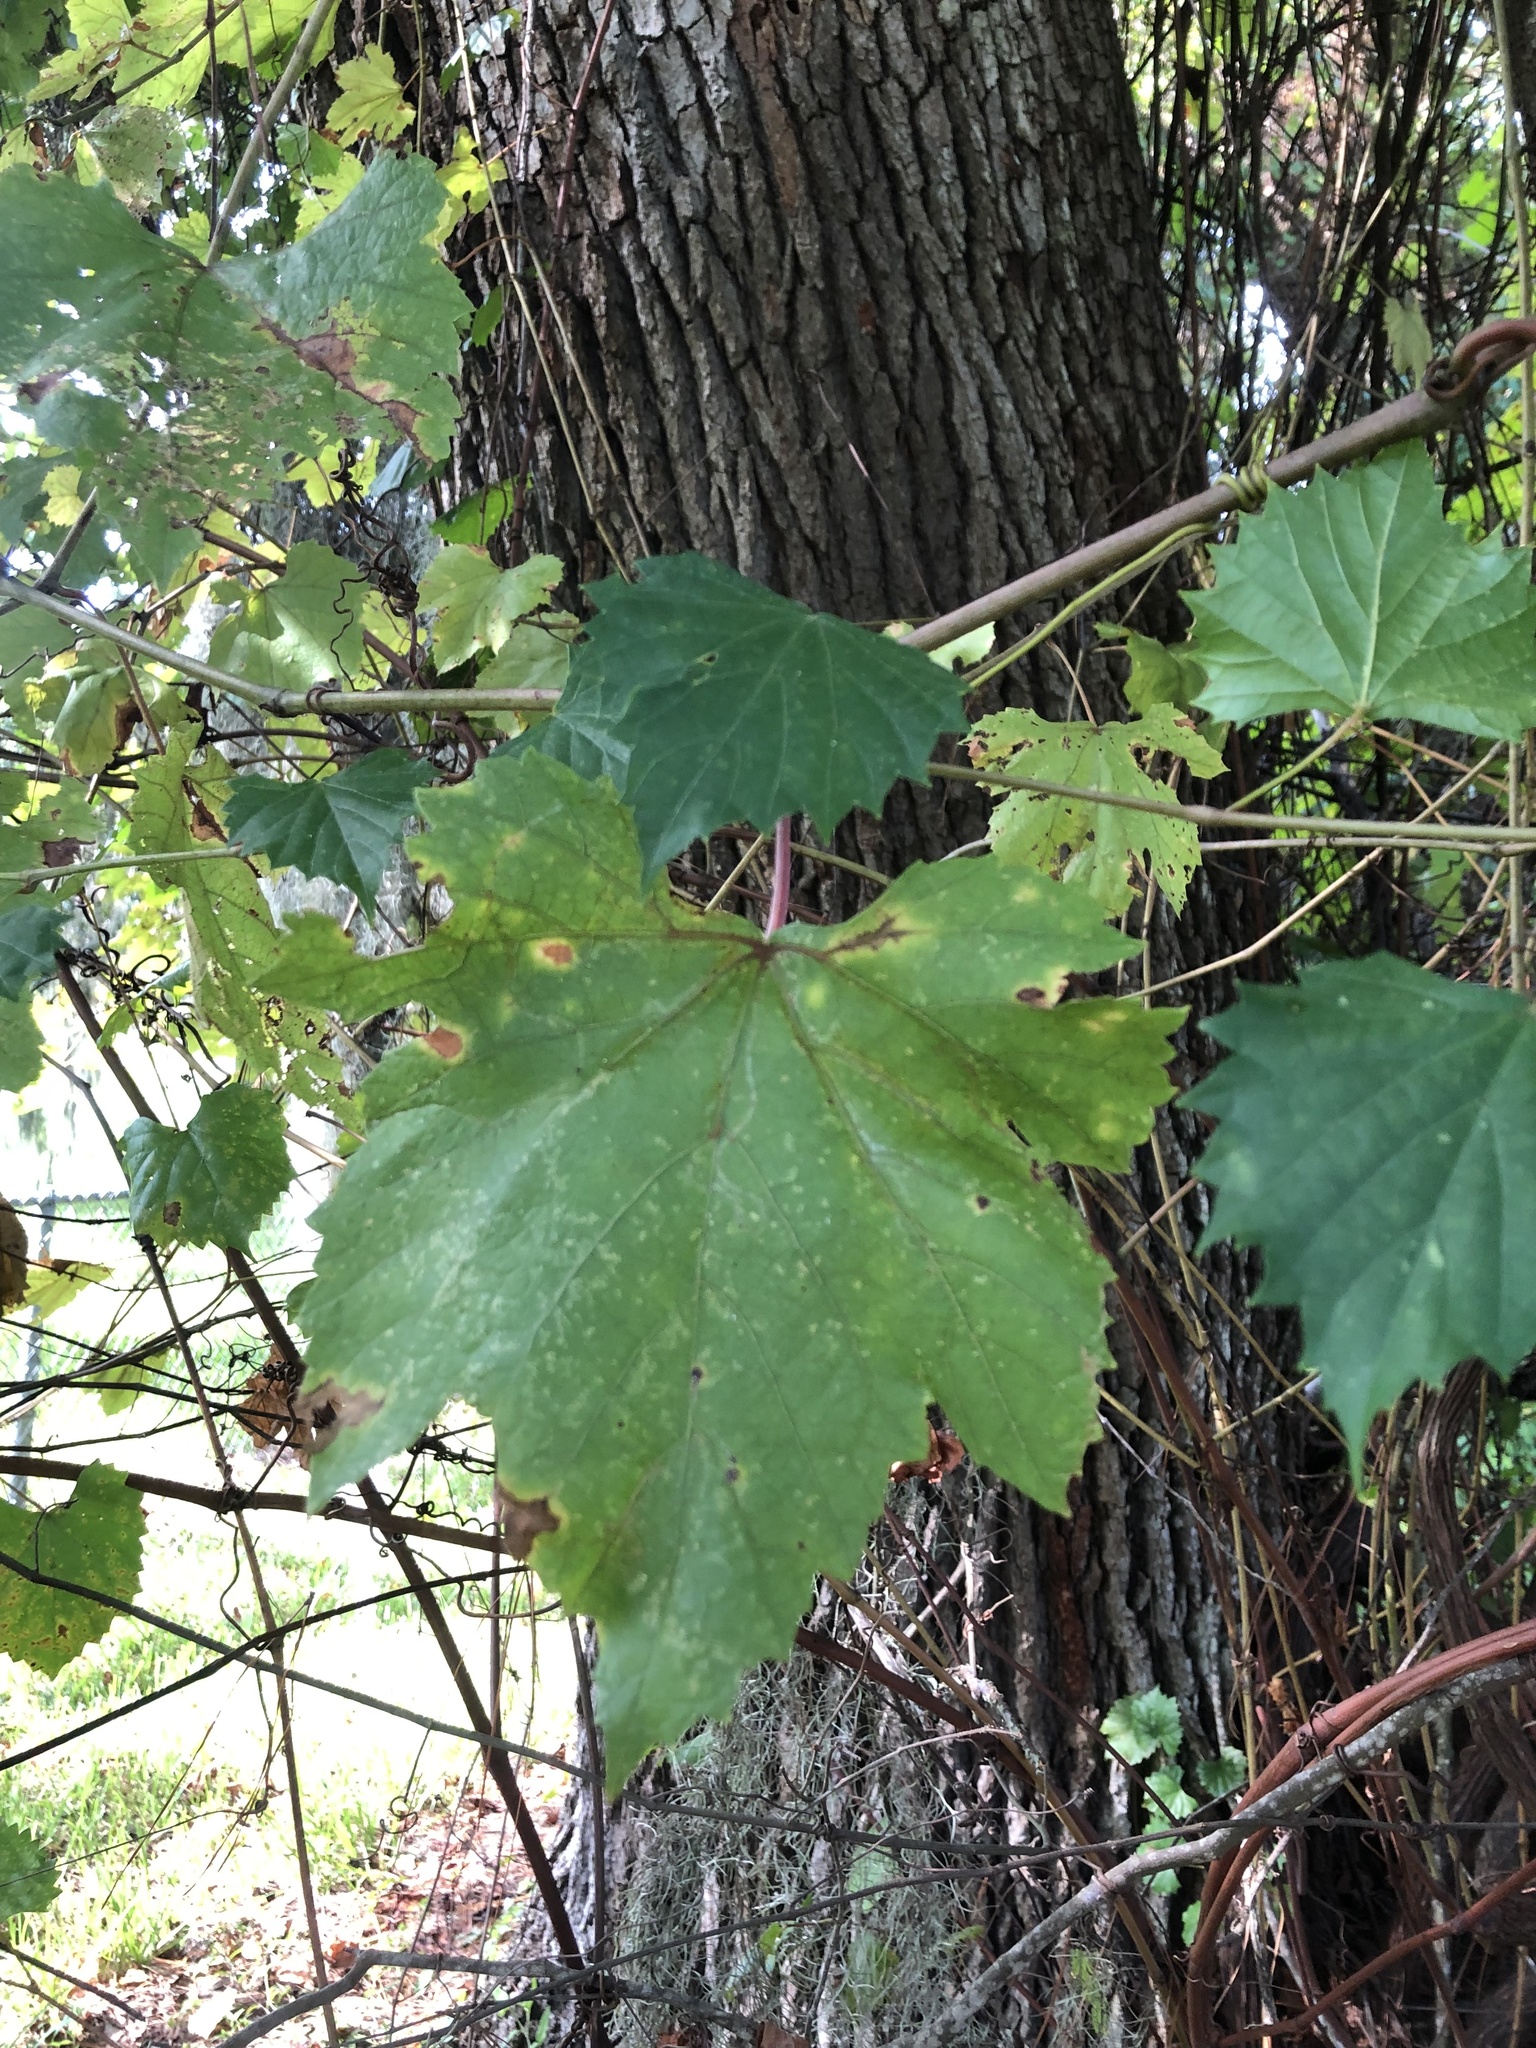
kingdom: Plantae
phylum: Tracheophyta
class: Magnoliopsida
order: Vitales
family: Vitaceae
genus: Vitis
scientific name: Vitis rotundifolia
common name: Muscadine grape
